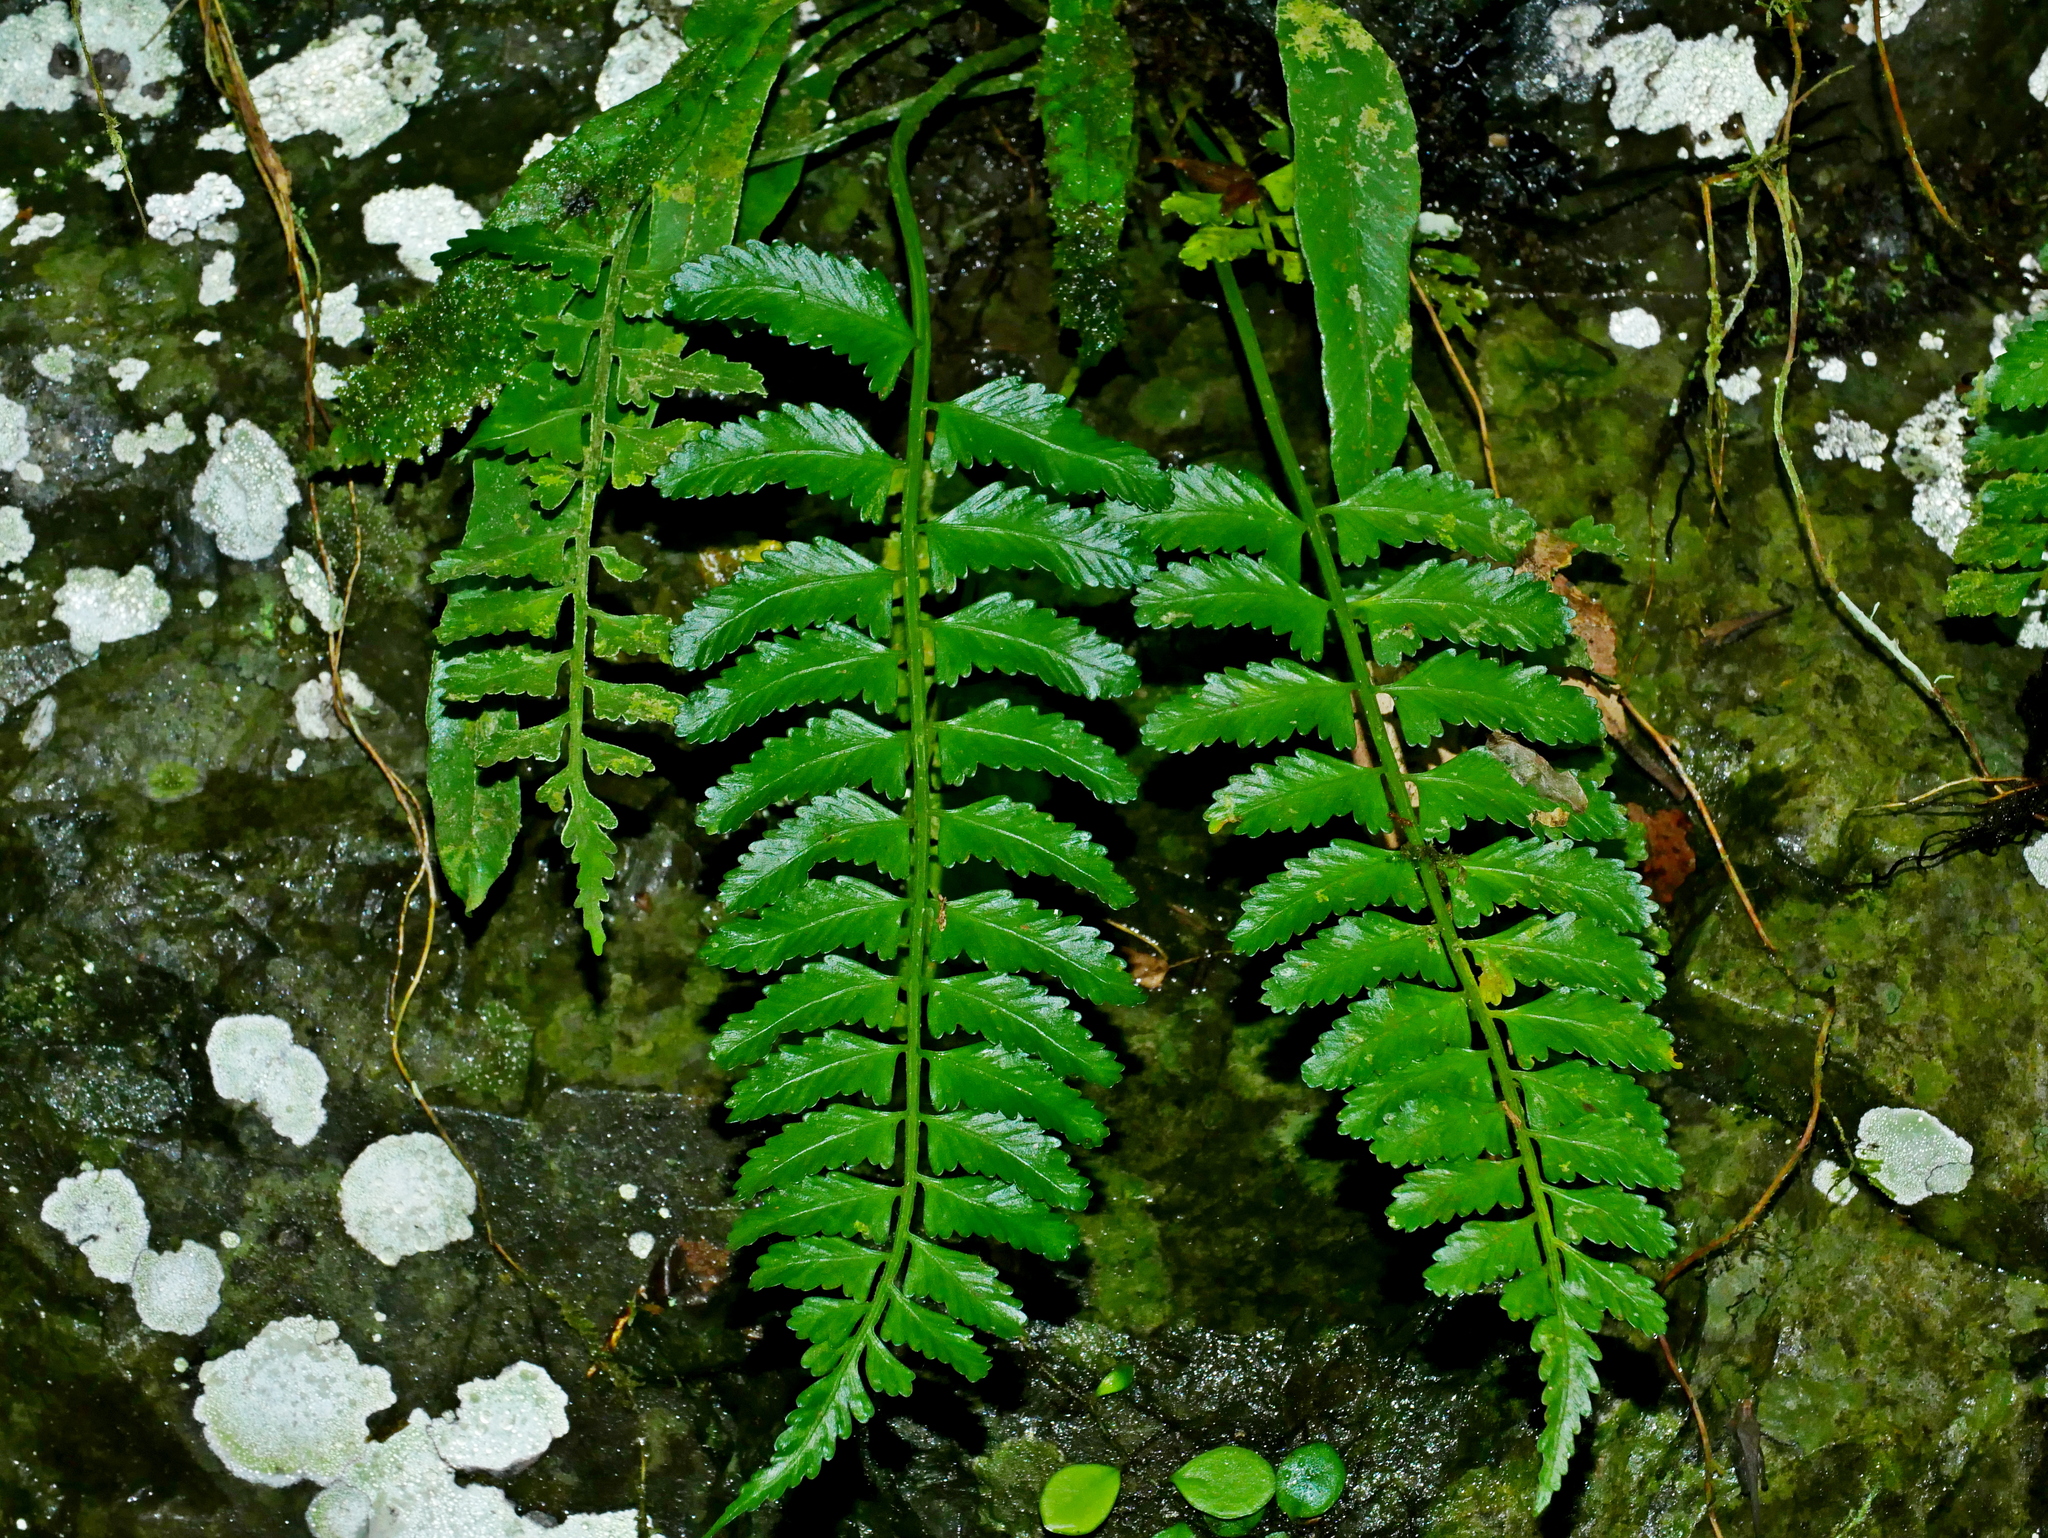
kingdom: Plantae
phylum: Tracheophyta
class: Polypodiopsida
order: Polypodiales
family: Aspleniaceae
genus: Asplenium
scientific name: Asplenium tenerum
